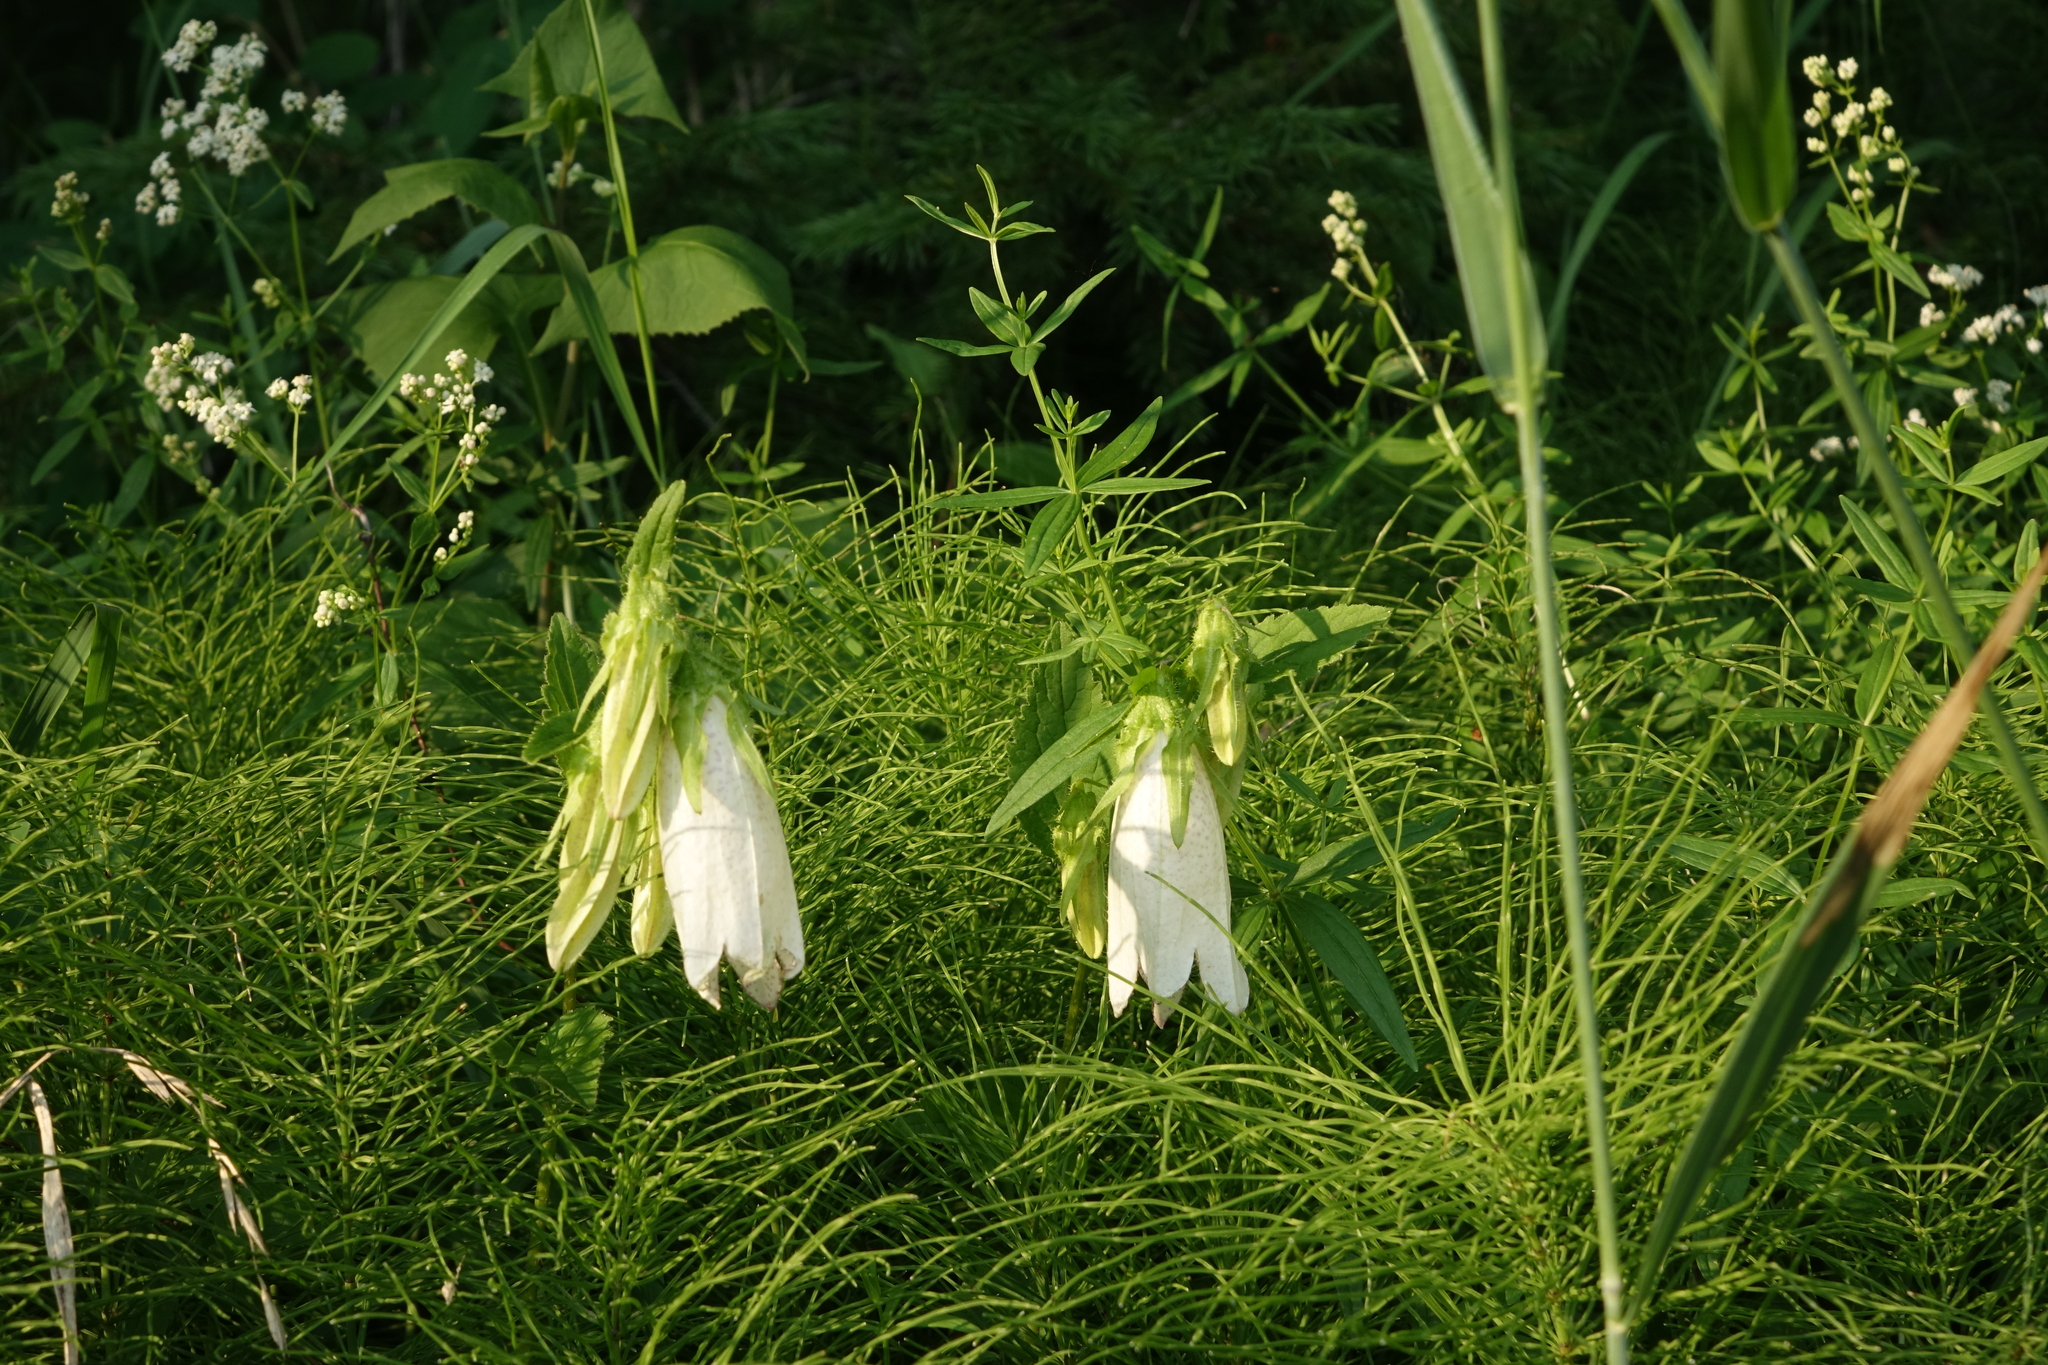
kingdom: Plantae
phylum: Tracheophyta
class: Magnoliopsida
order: Gentianales
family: Rubiaceae
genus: Galium
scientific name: Galium boreale
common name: Northern bedstraw
